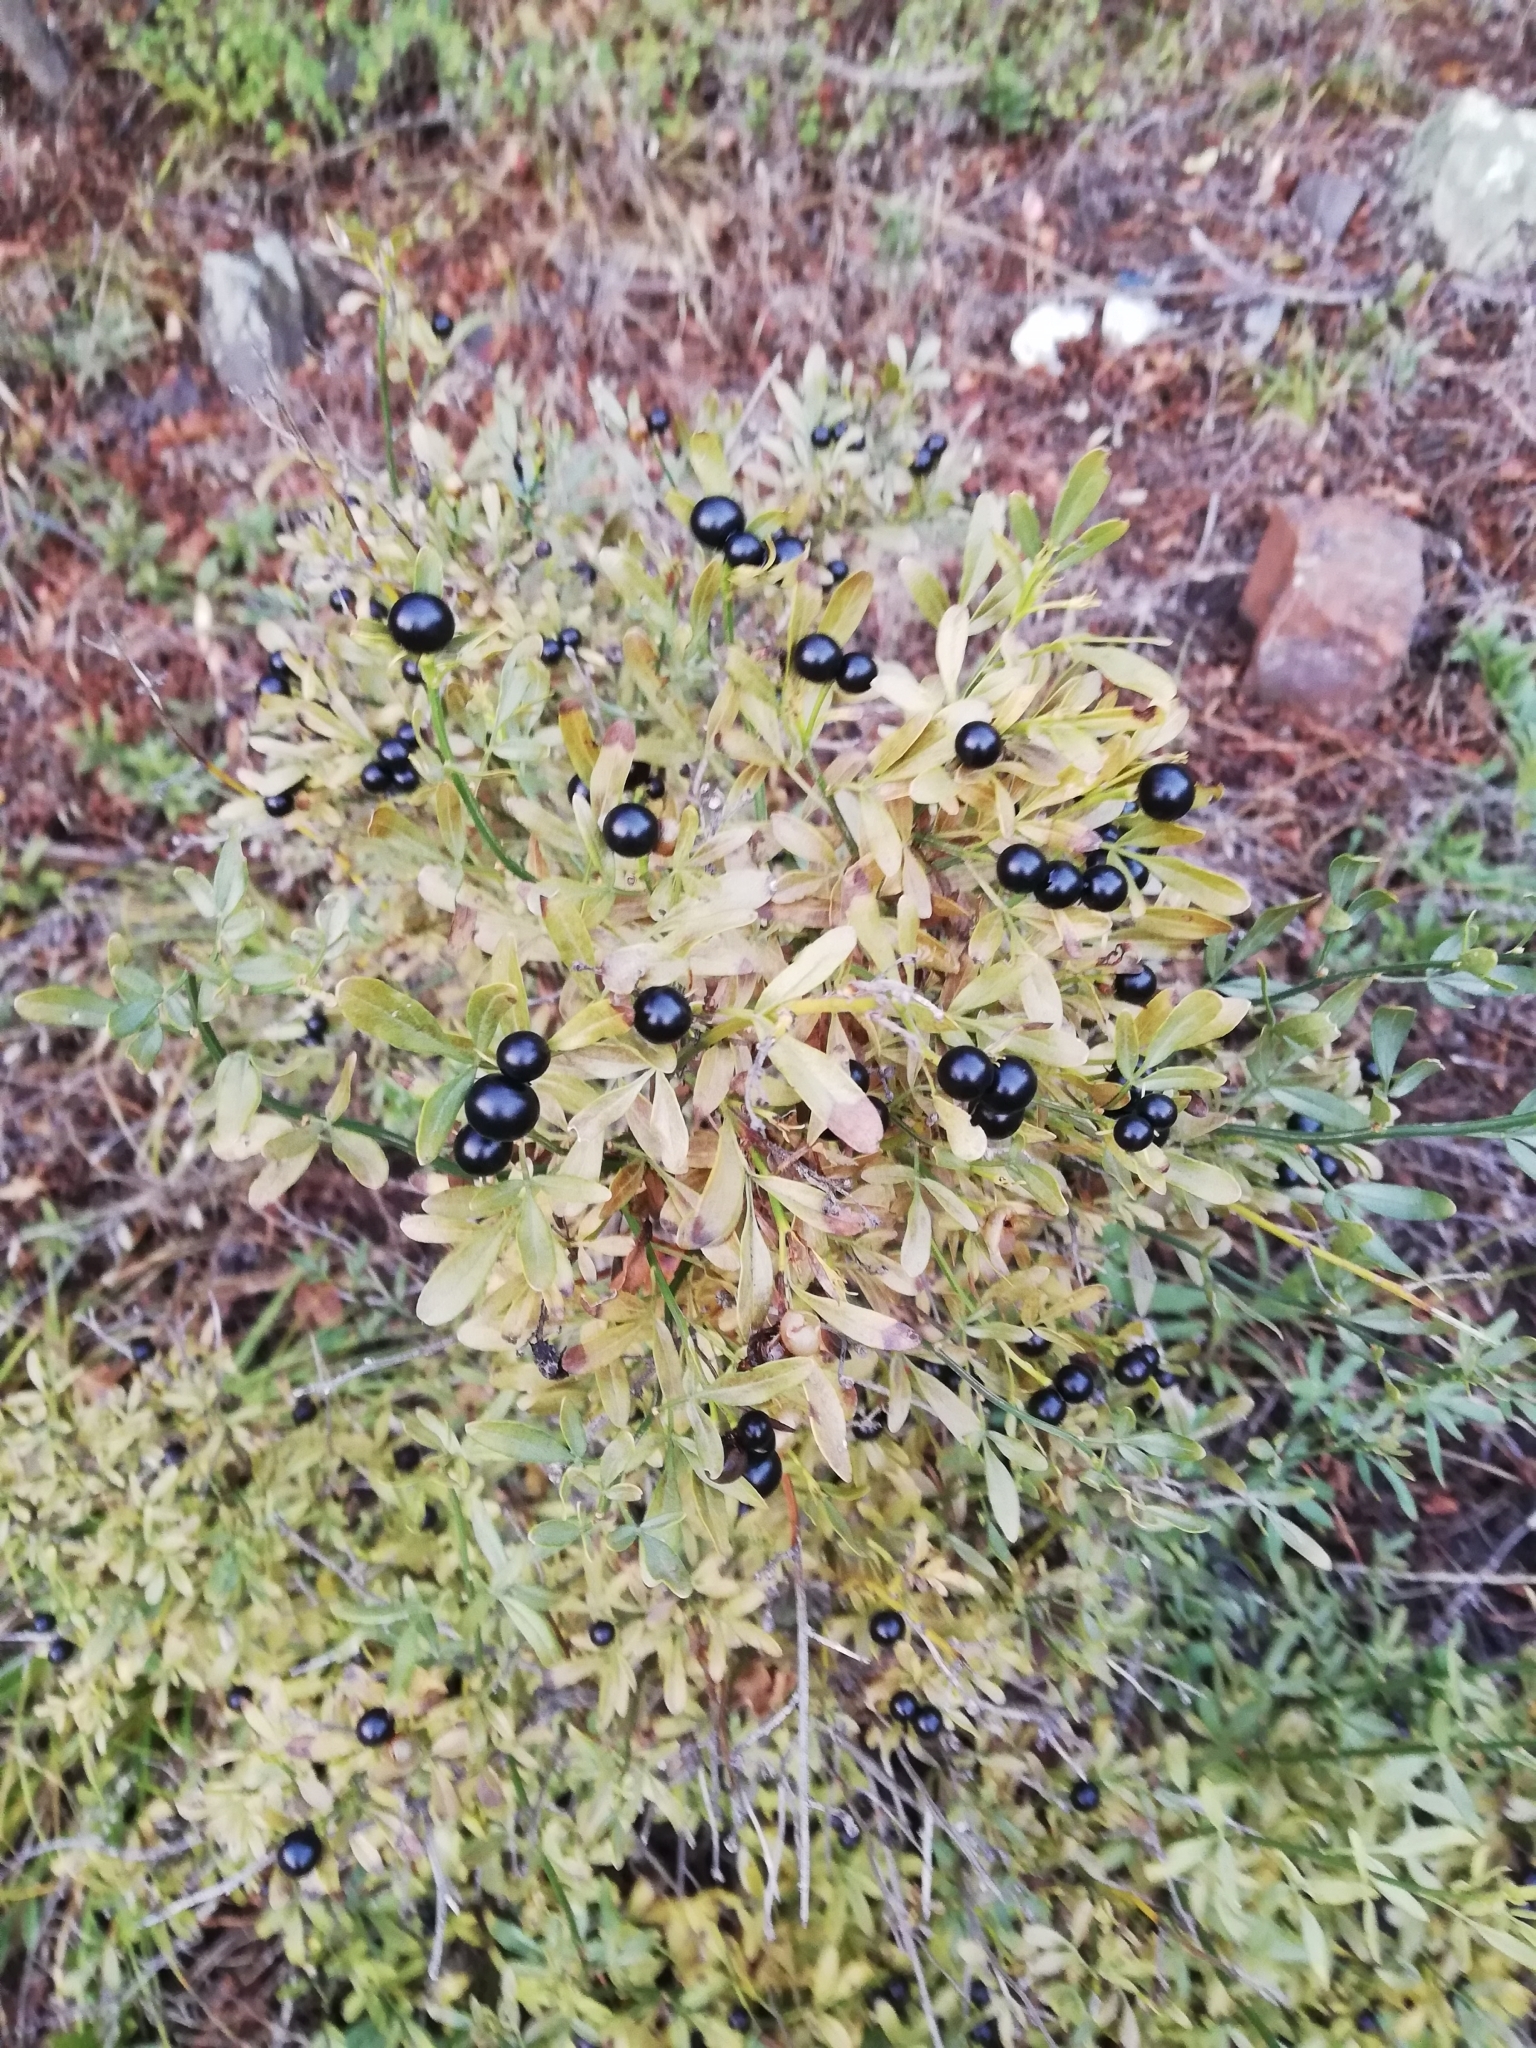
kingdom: Plantae
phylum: Tracheophyta
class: Magnoliopsida
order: Lamiales
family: Oleaceae
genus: Chrysojasminum
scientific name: Chrysojasminum fruticans
